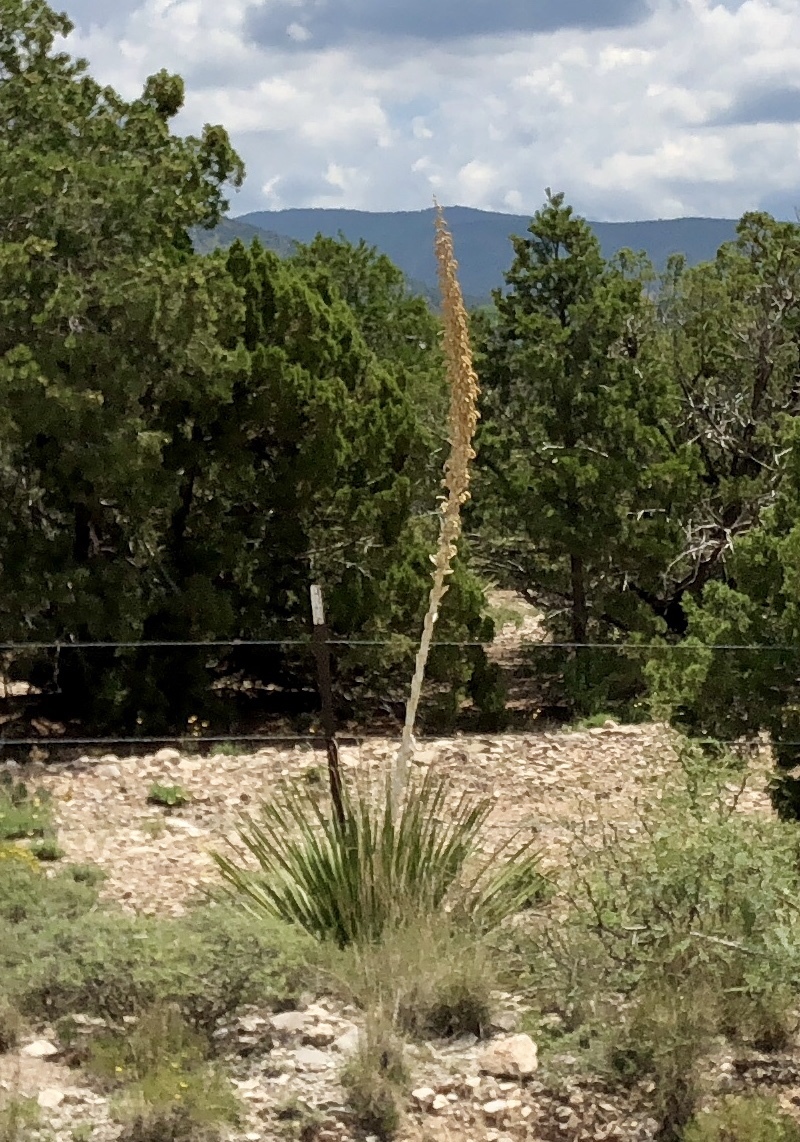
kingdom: Plantae
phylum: Tracheophyta
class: Liliopsida
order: Asparagales
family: Asparagaceae
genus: Dasylirion
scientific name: Dasylirion wheeleri
